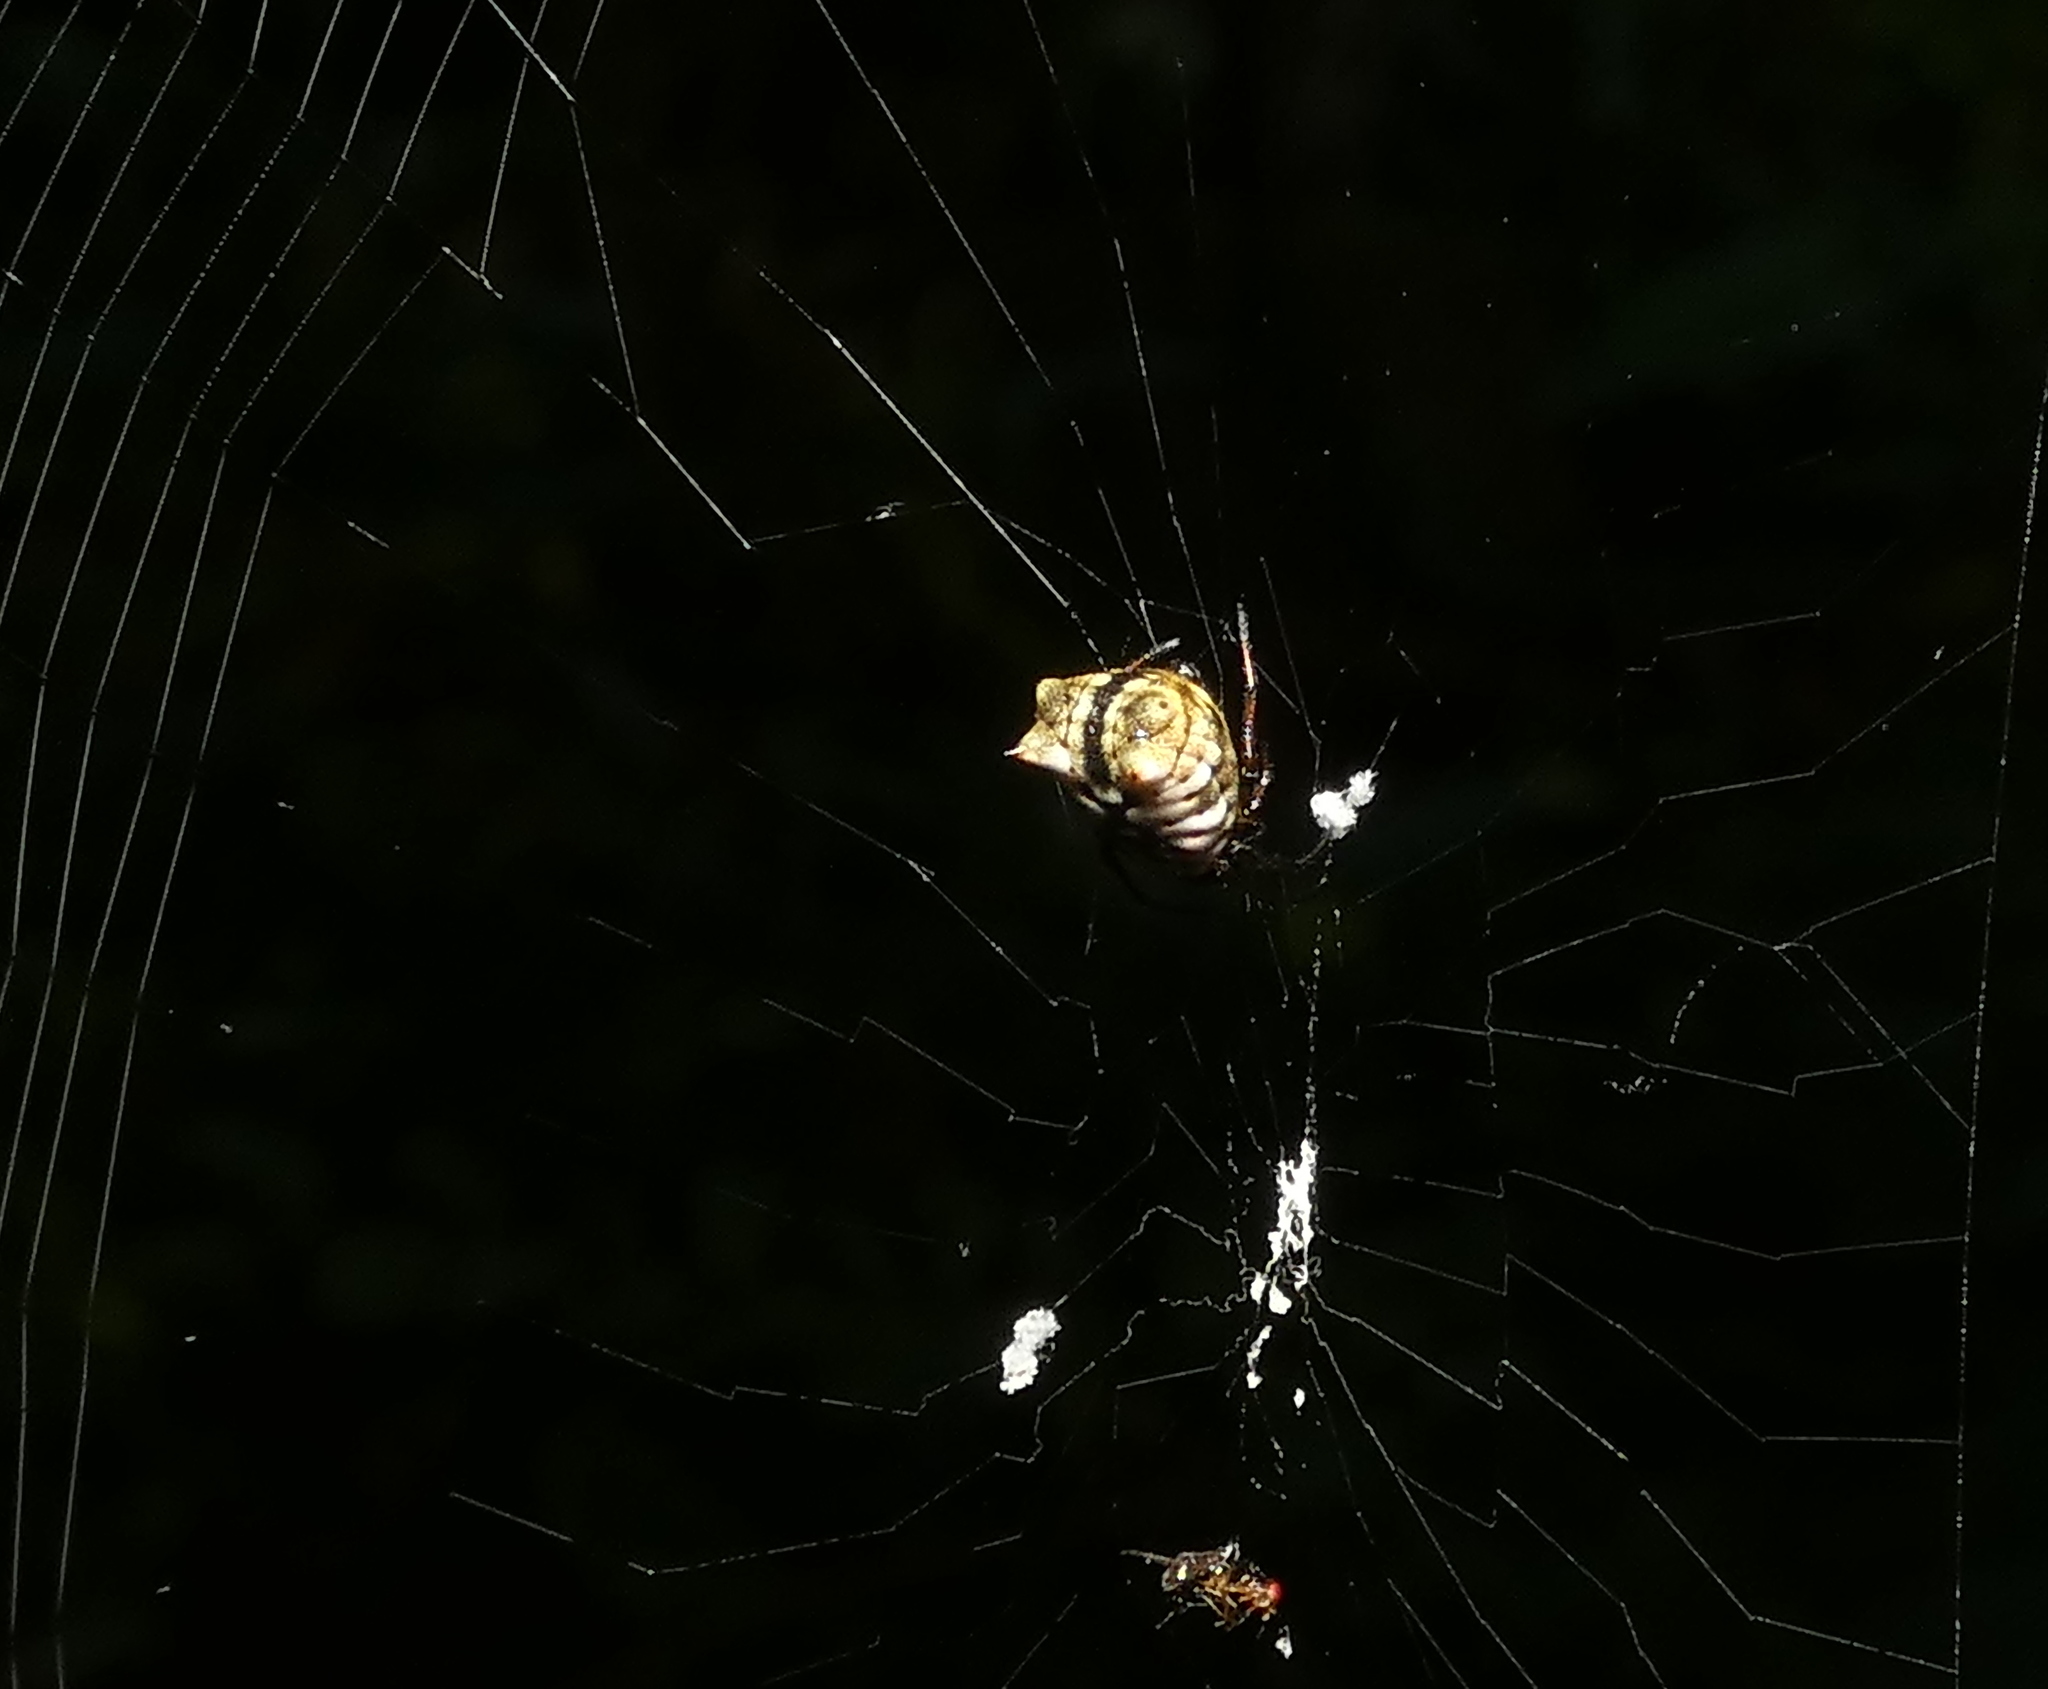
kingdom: Animalia
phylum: Arthropoda
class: Arachnida
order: Araneae
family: Araneidae
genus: Micrathena
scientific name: Micrathena patruelis
